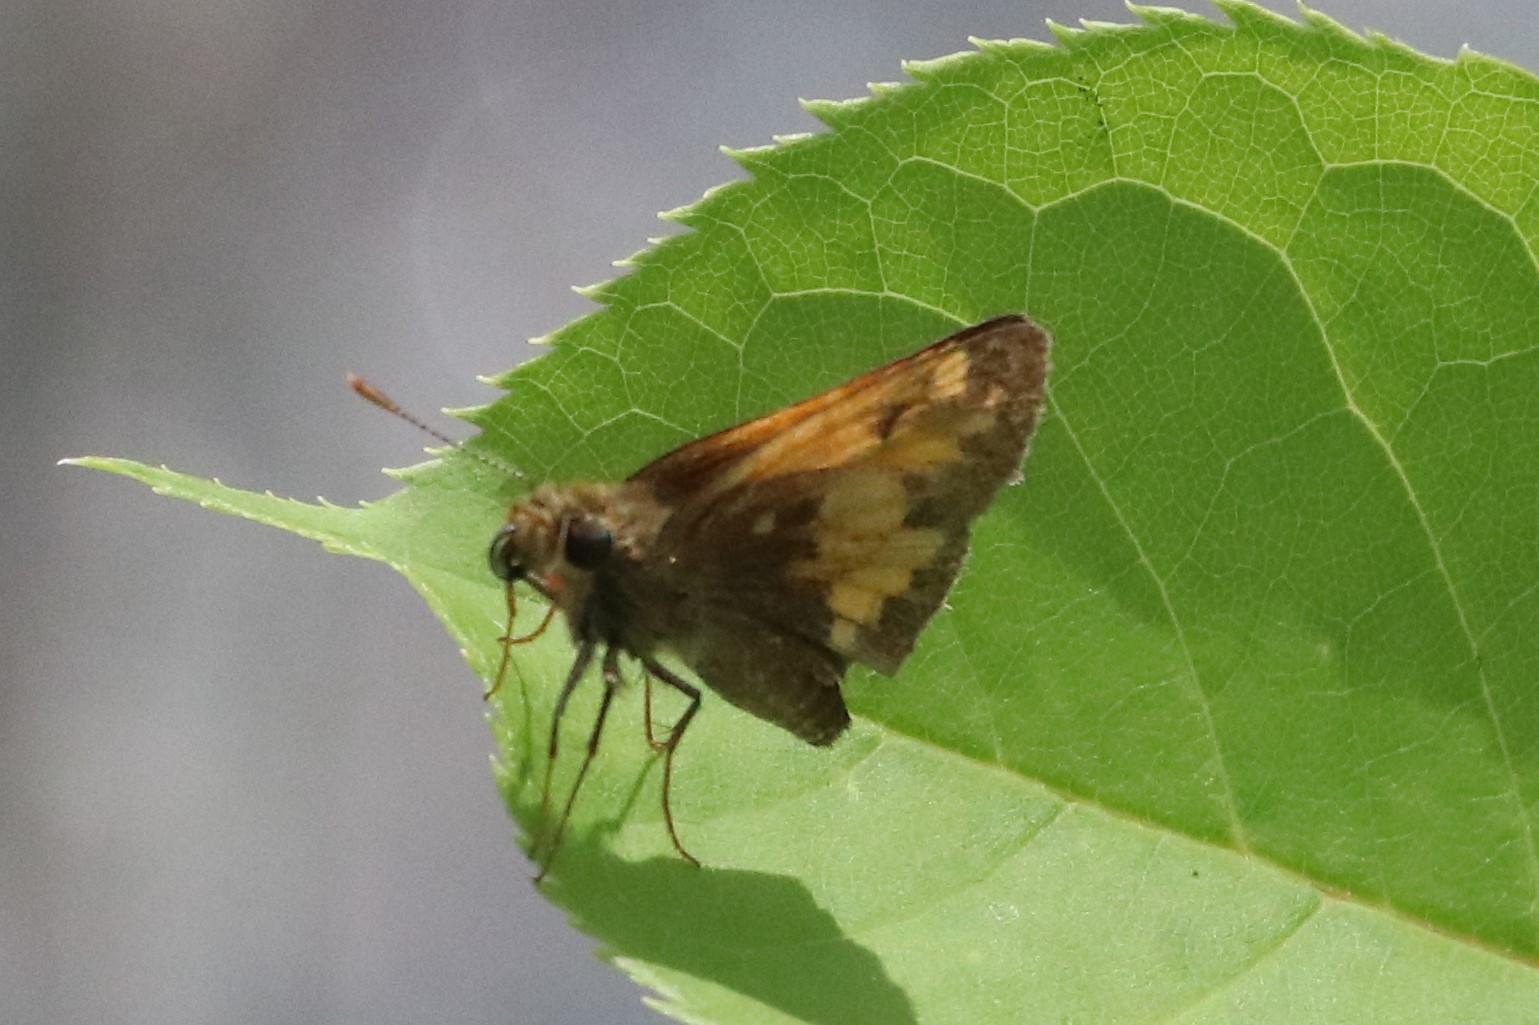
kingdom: Animalia
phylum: Arthropoda
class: Insecta
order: Lepidoptera
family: Hesperiidae
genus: Lon
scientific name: Lon hobomok
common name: Hobomok skipper
